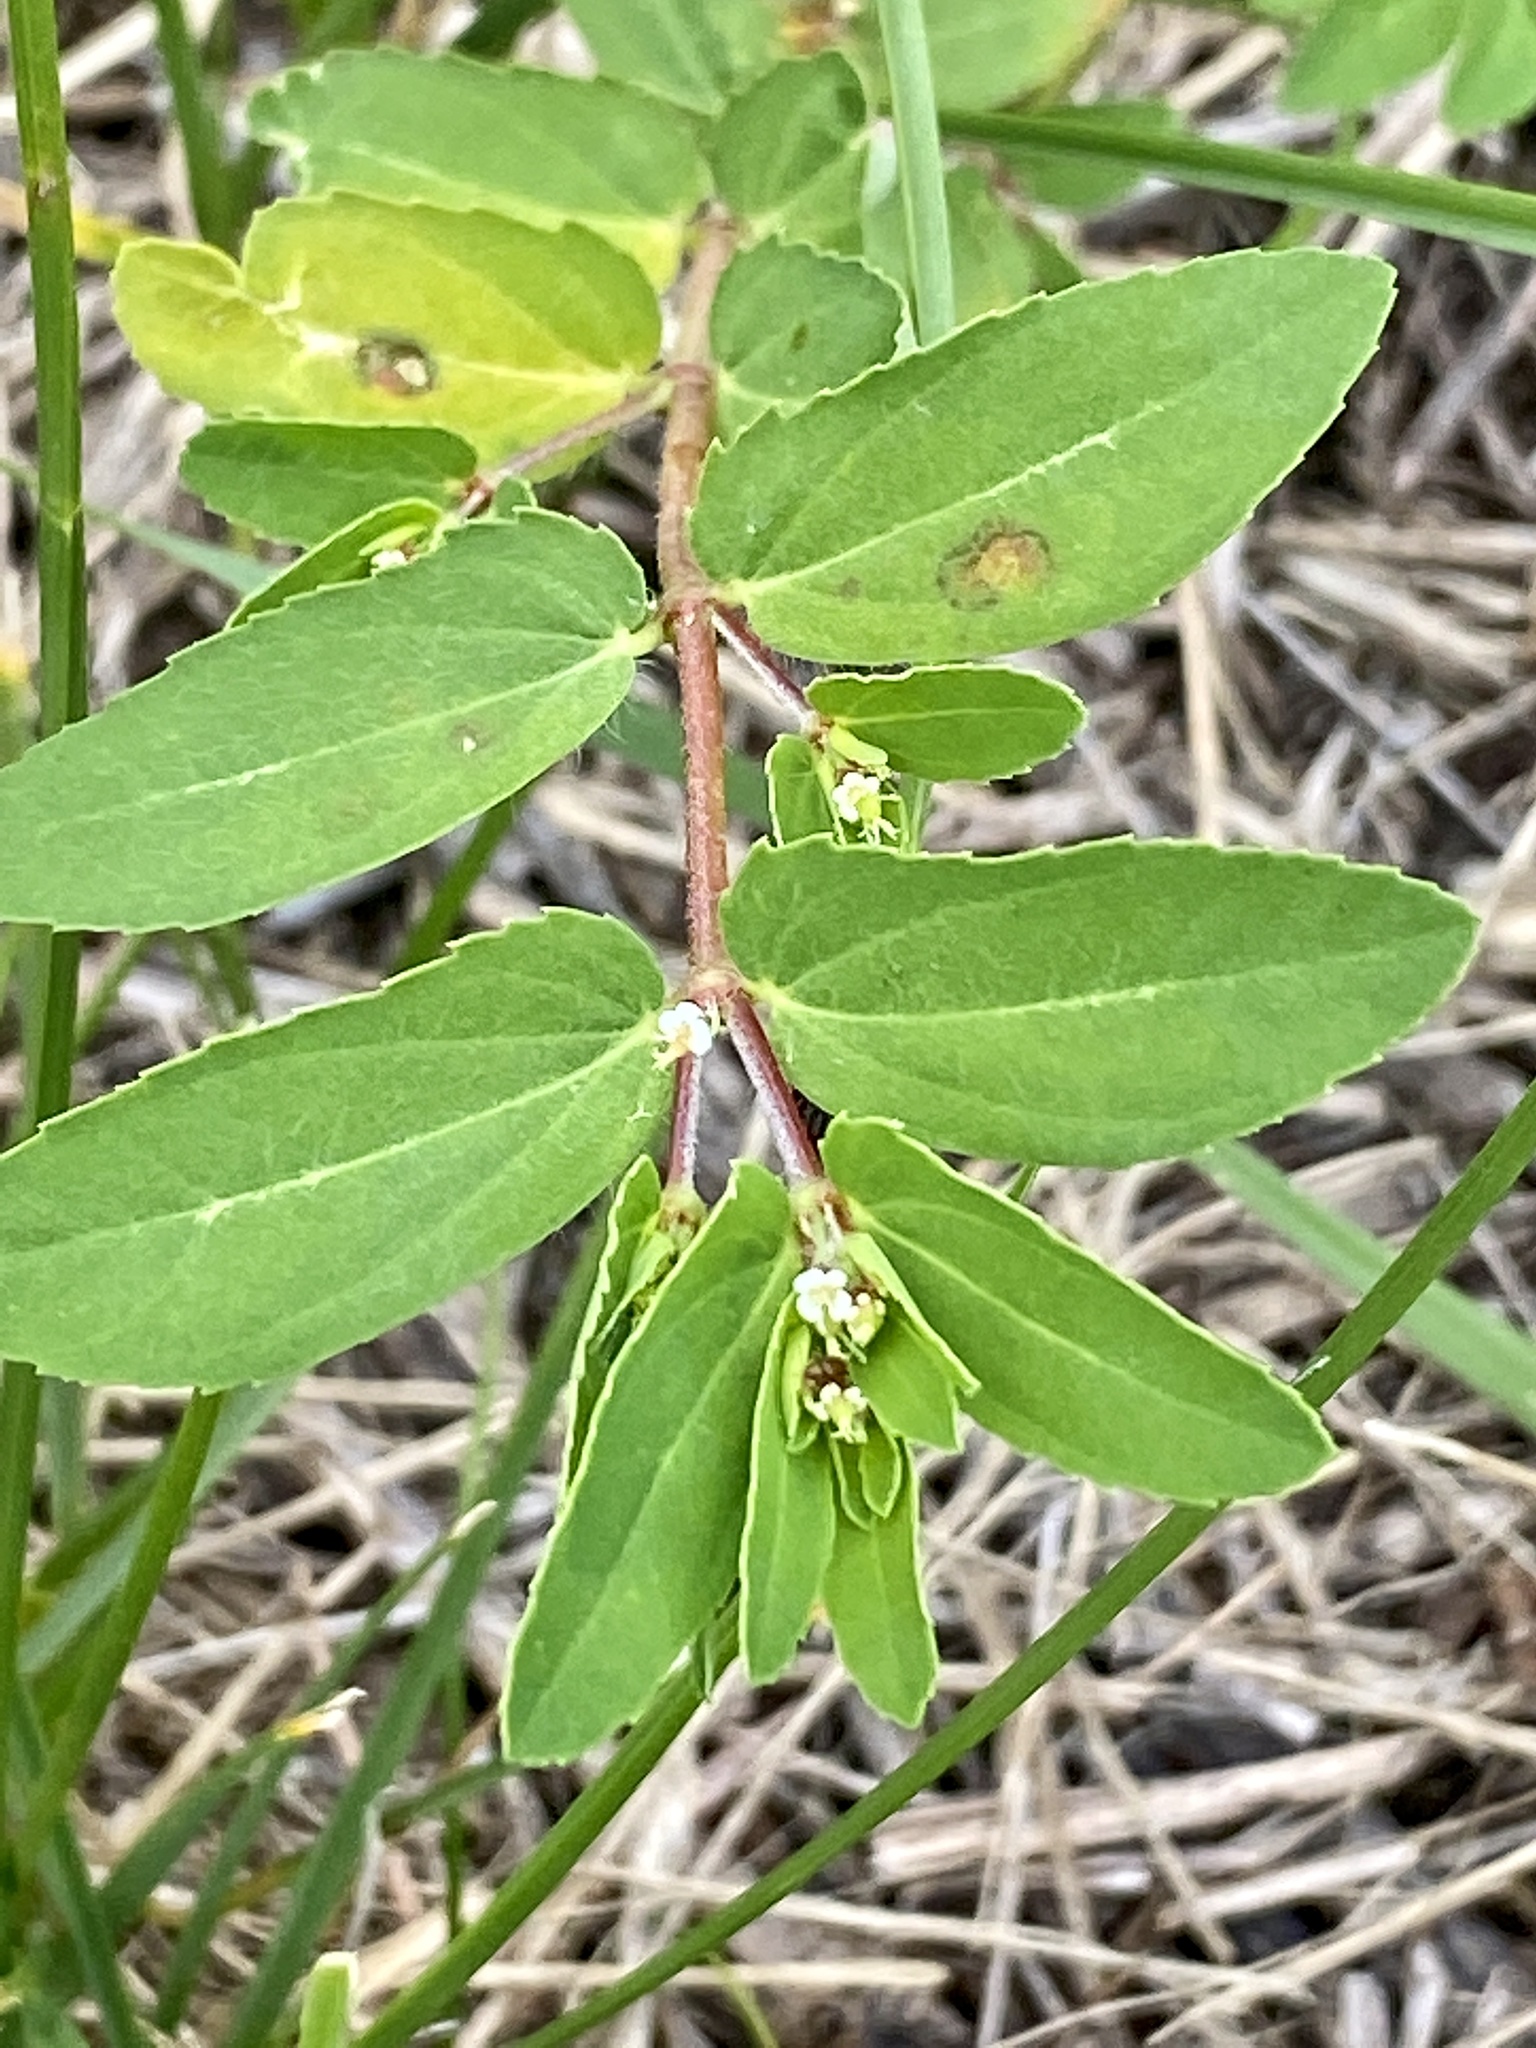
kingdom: Plantae
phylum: Tracheophyta
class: Magnoliopsida
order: Malpighiales
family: Euphorbiaceae
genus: Euphorbia
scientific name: Euphorbia nutans
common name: Eyebane
